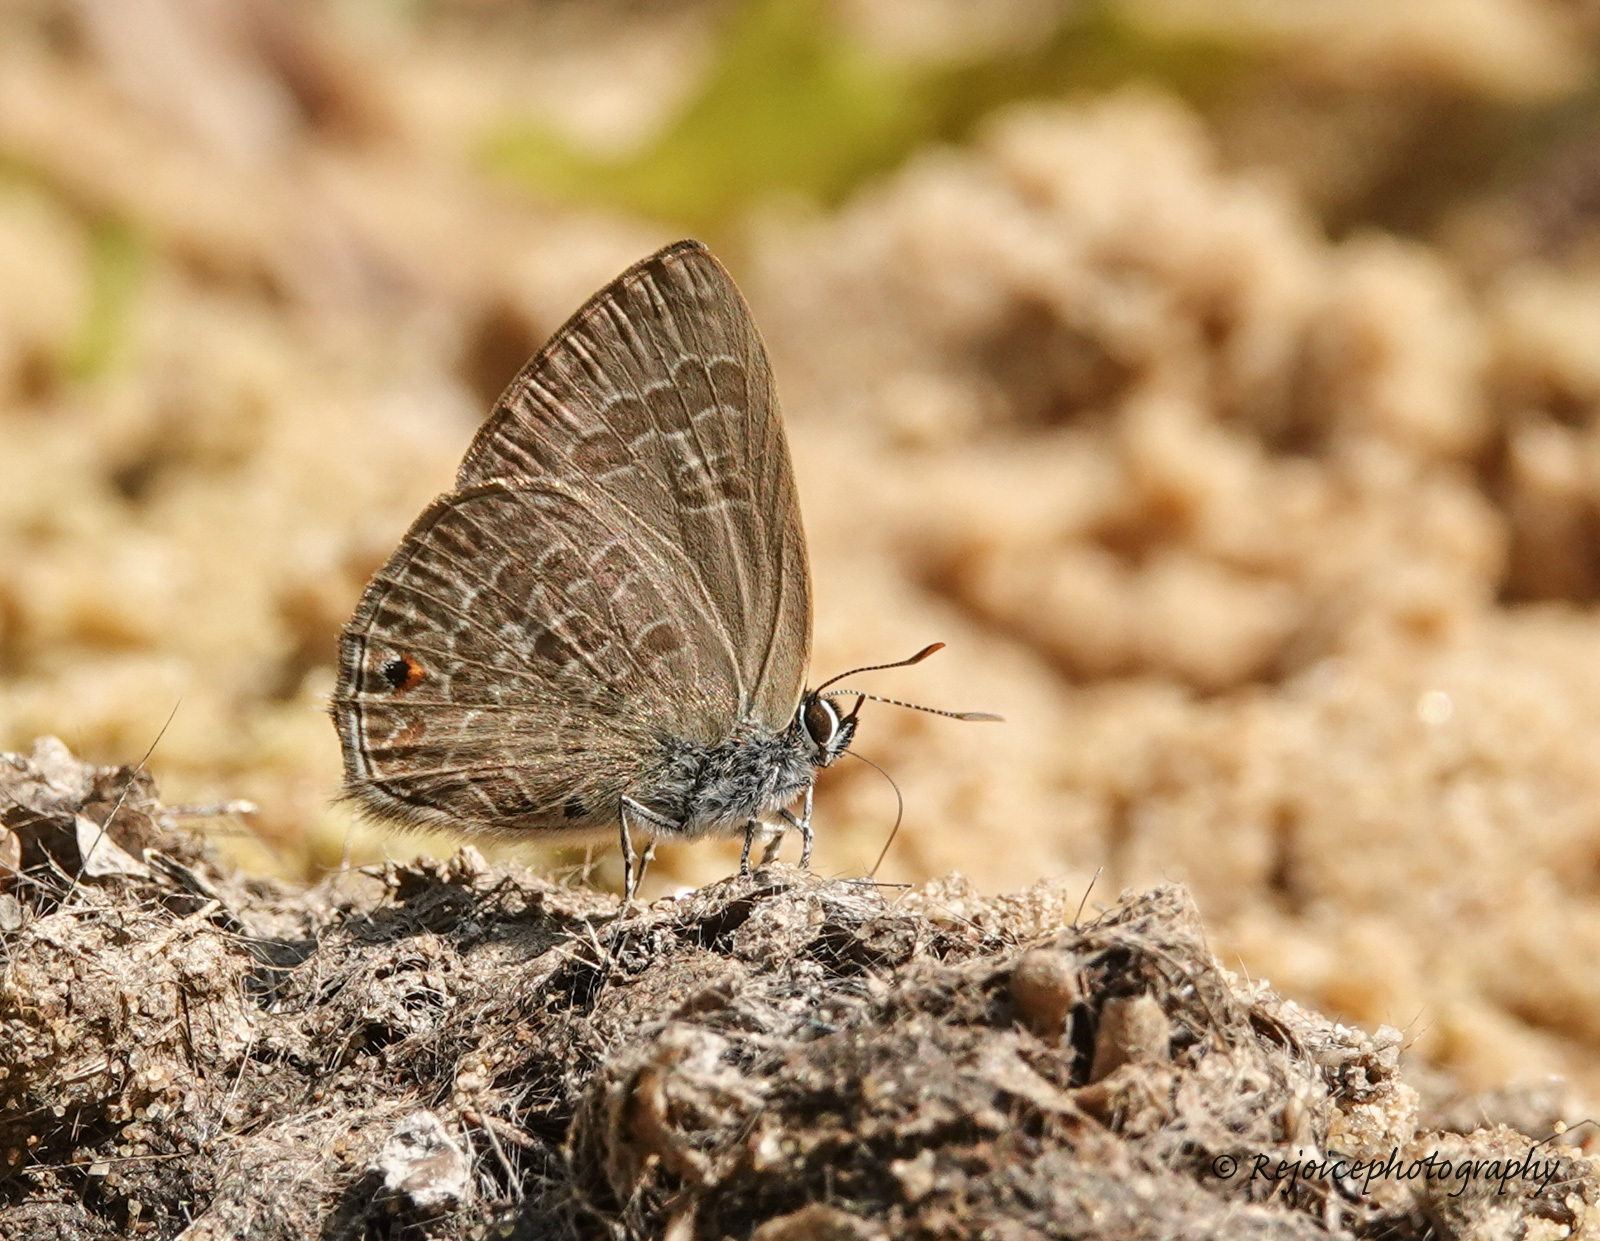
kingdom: Animalia
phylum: Arthropoda
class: Insecta
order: Lepidoptera
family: Lycaenidae
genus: Anthene
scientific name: Anthene emolus
